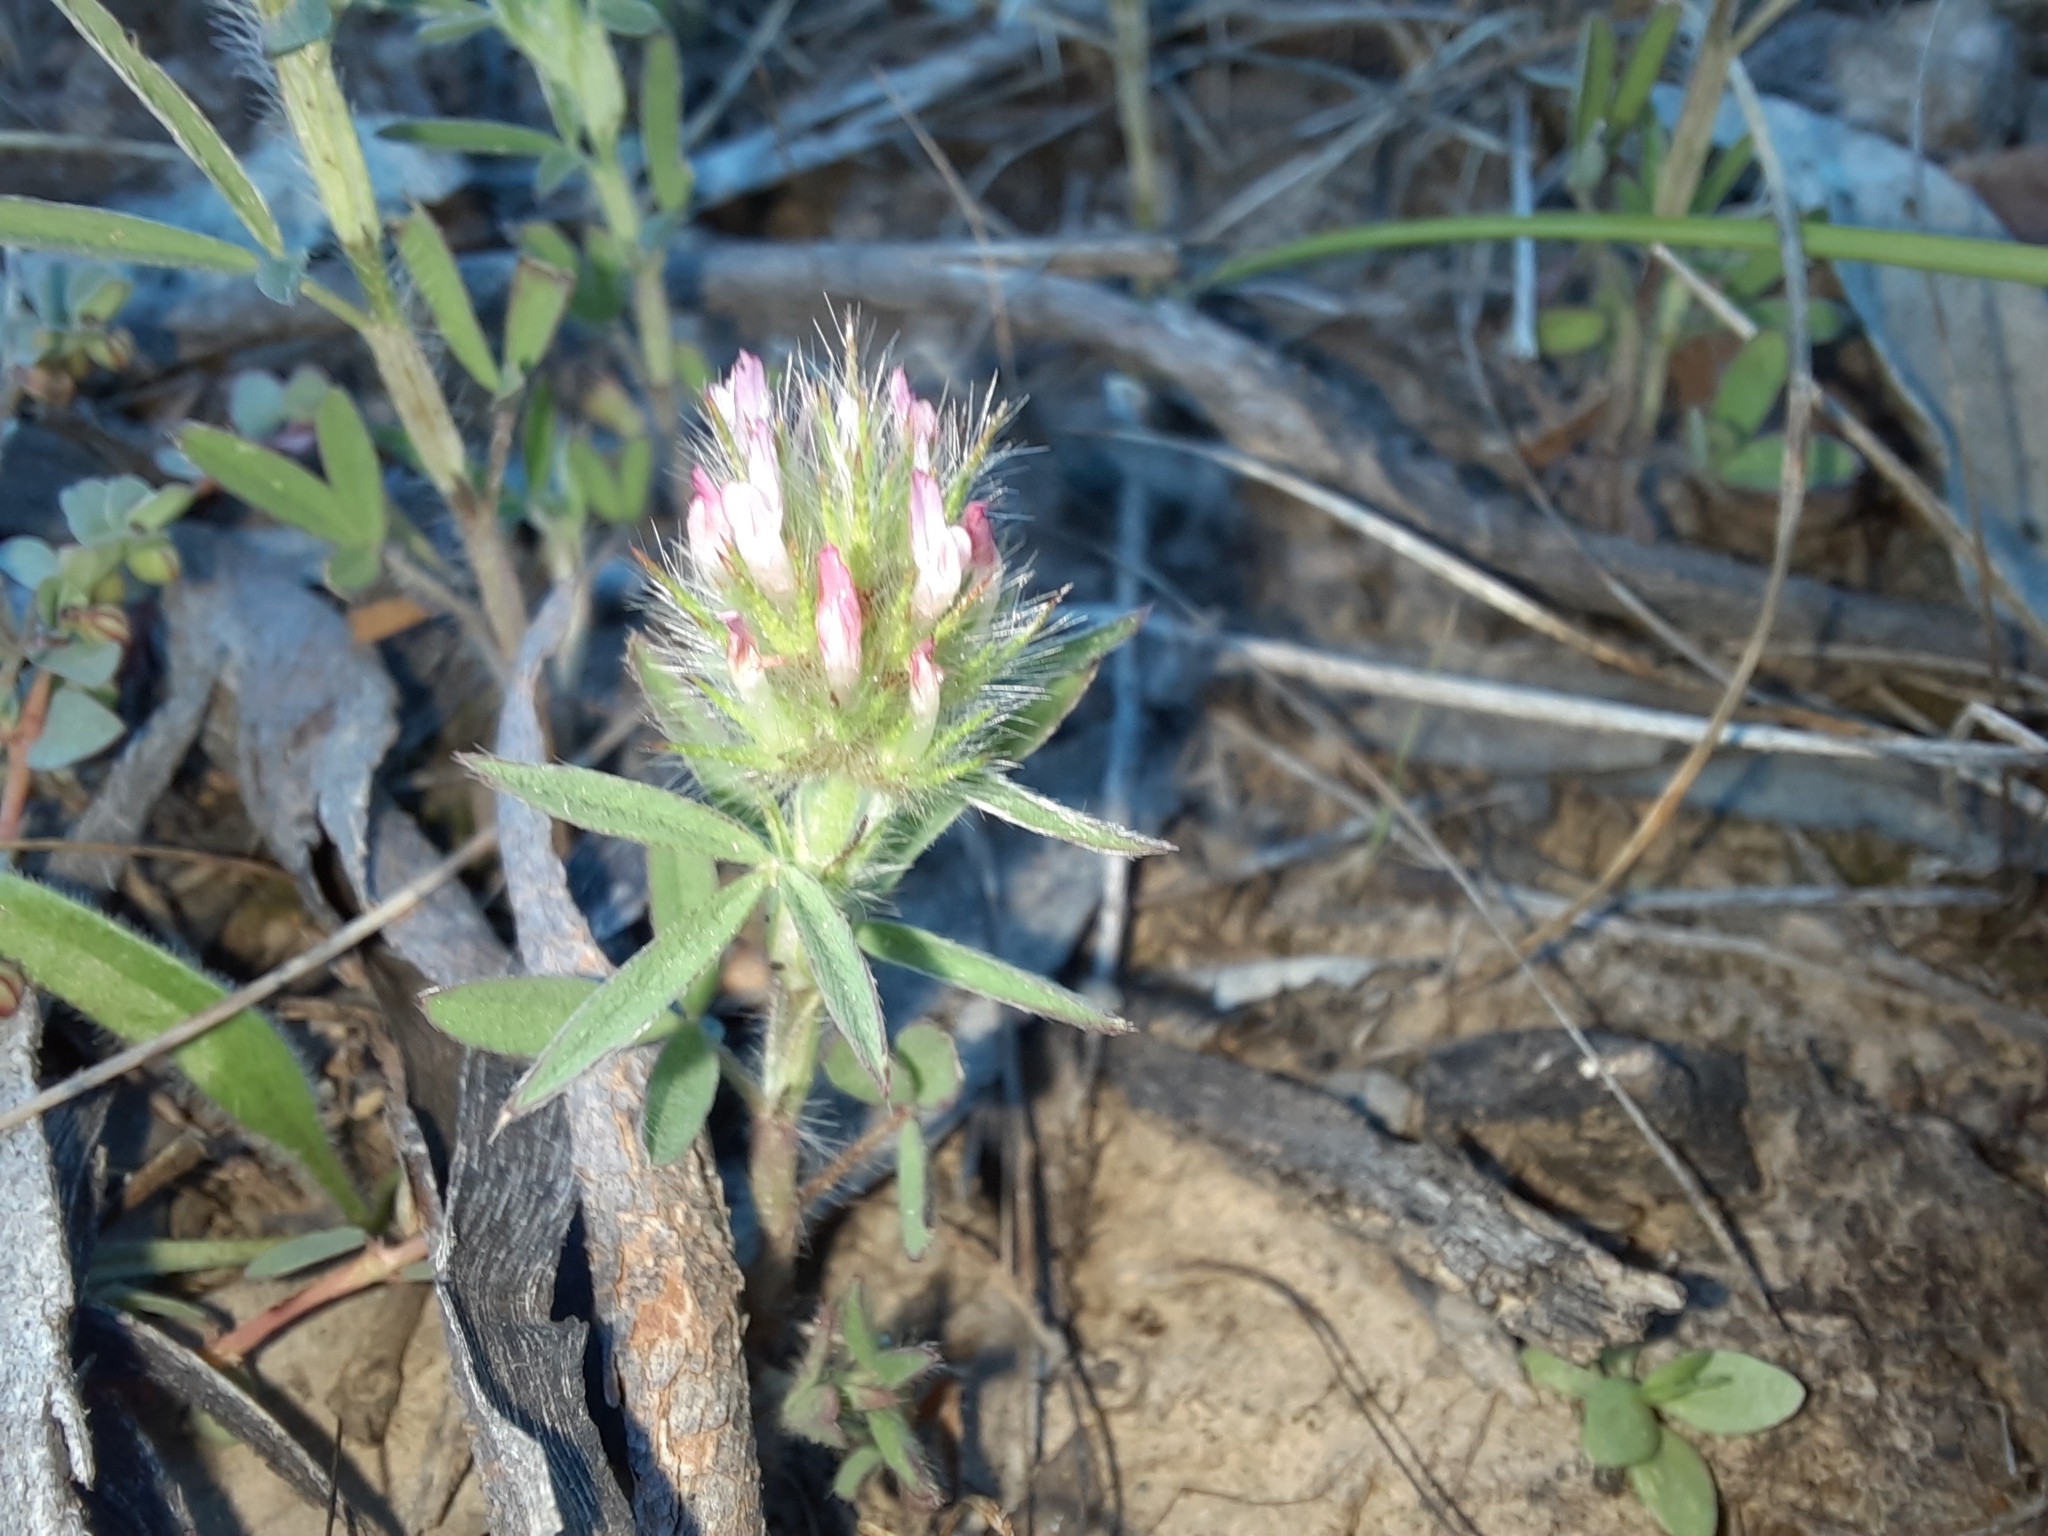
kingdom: Plantae
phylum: Tracheophyta
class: Magnoliopsida
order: Fabales
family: Fabaceae
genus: Trifolium
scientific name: Trifolium angustifolium
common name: Narrow clover
